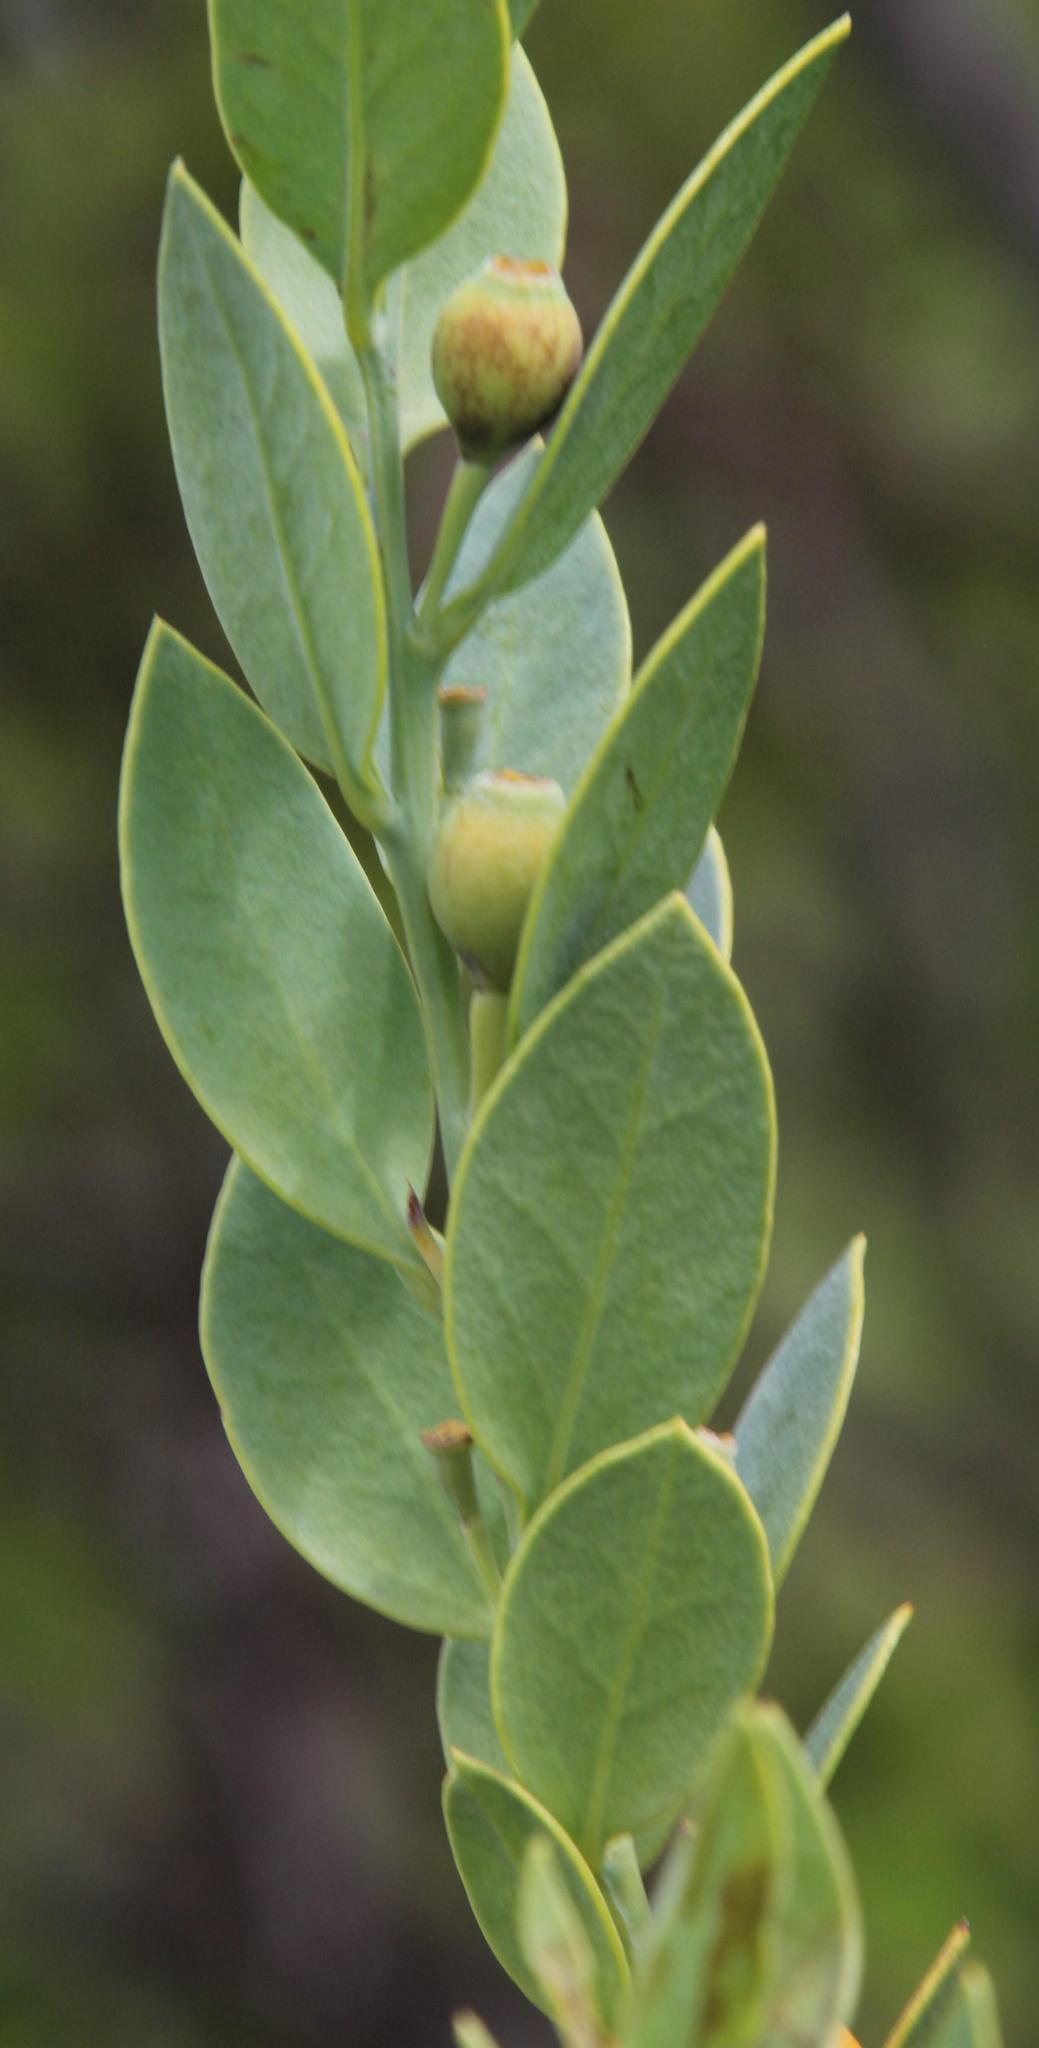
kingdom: Plantae
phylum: Tracheophyta
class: Magnoliopsida
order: Santalales
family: Santalaceae
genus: Osyris
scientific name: Osyris lanceolata
